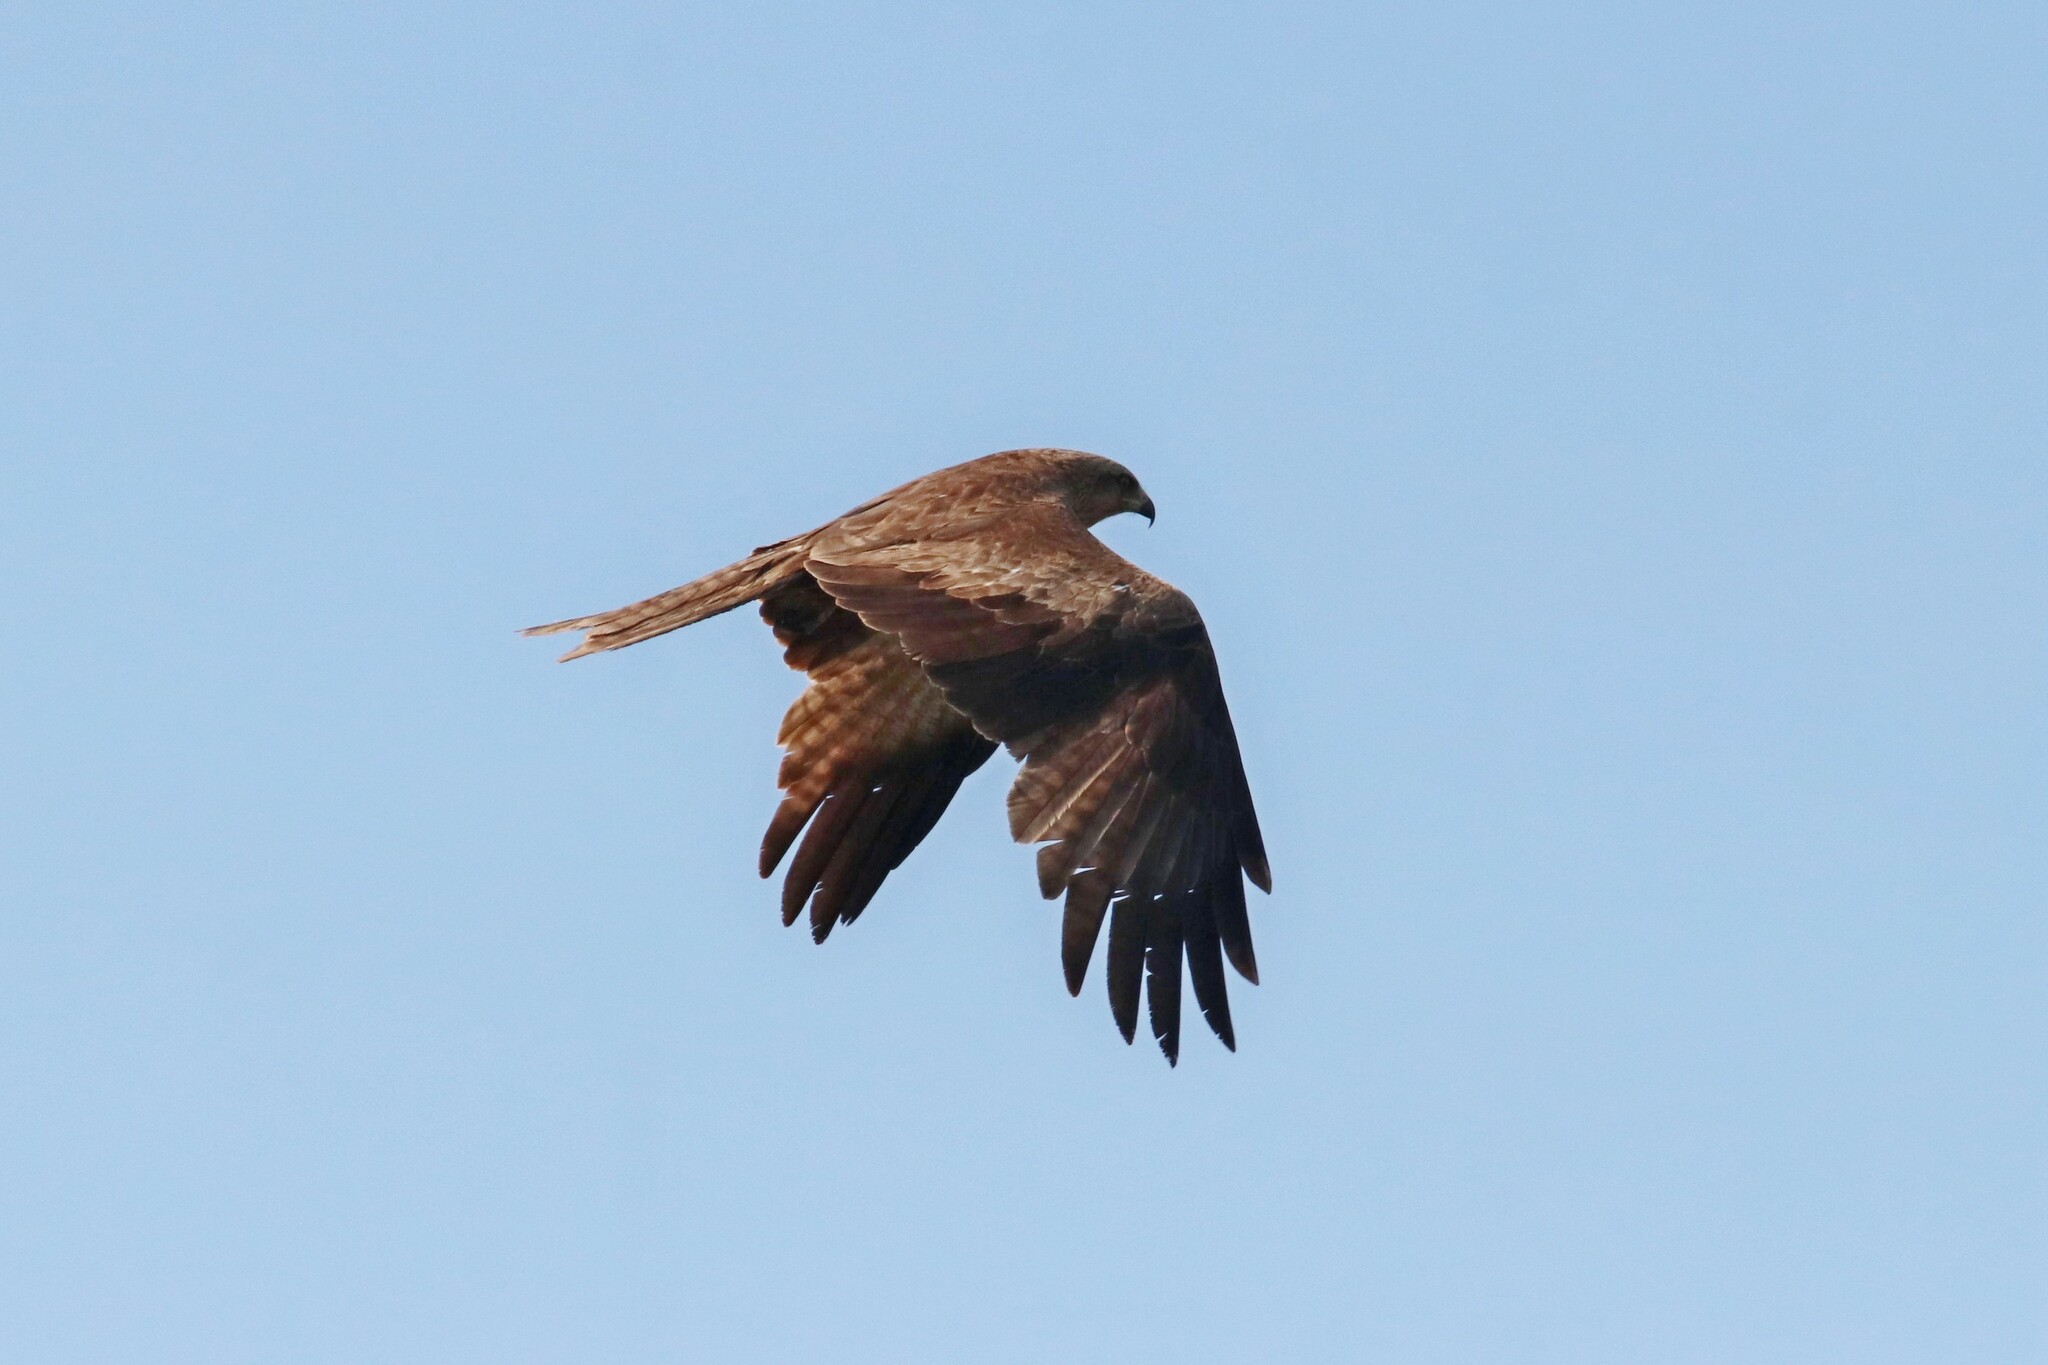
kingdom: Animalia
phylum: Chordata
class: Aves
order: Accipitriformes
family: Accipitridae
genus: Milvus
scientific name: Milvus migrans
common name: Black kite
